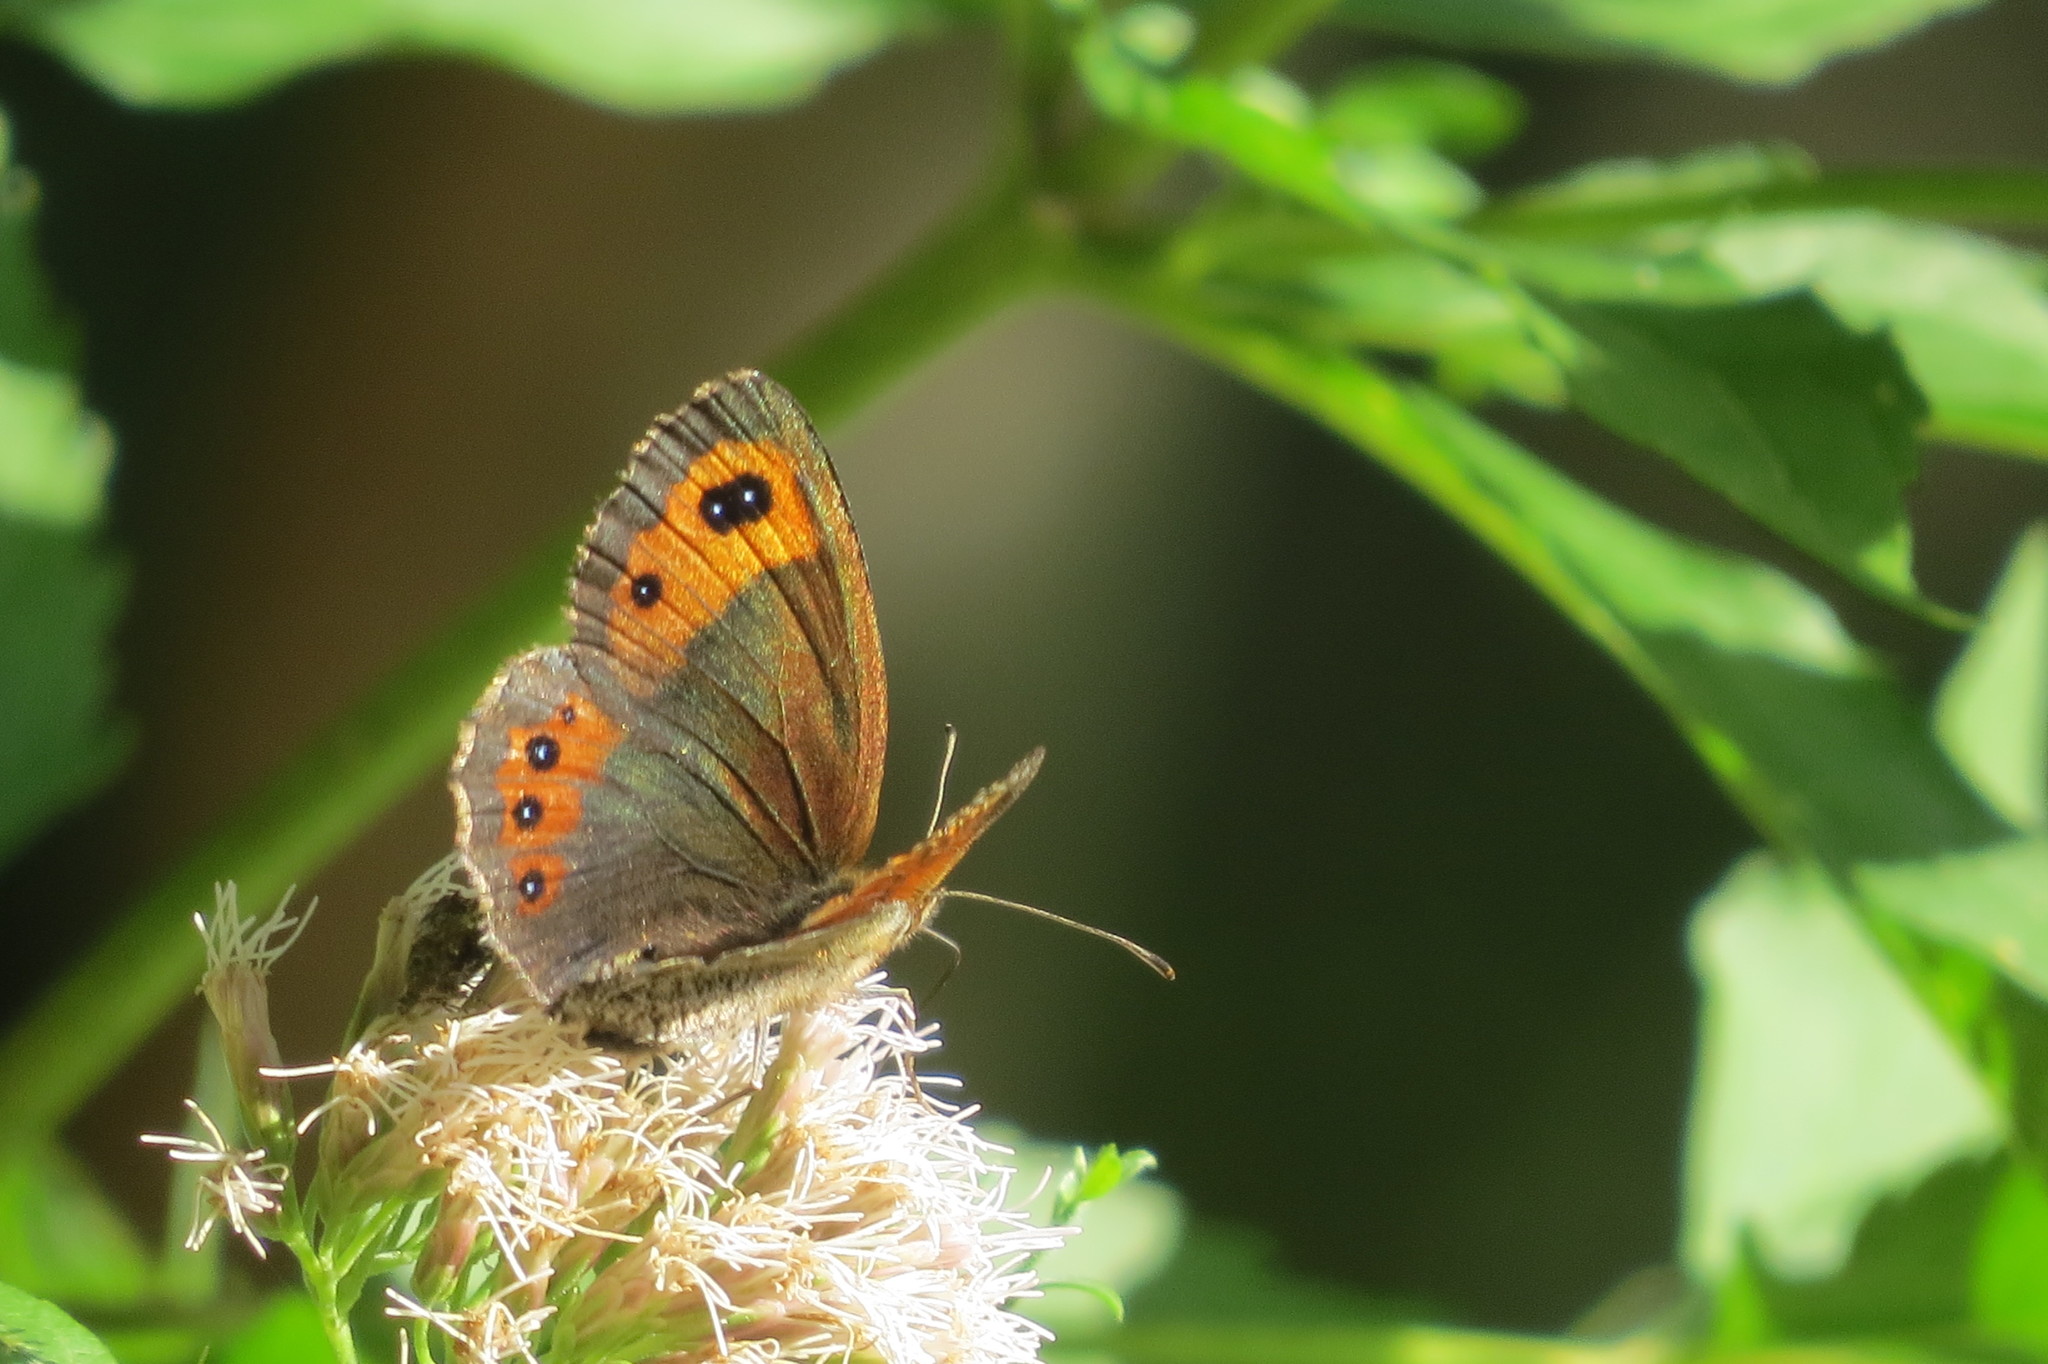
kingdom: Animalia
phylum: Arthropoda
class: Insecta
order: Lepidoptera
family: Nymphalidae
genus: Erebia
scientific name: Erebia montanus
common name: Marbled ringlet
